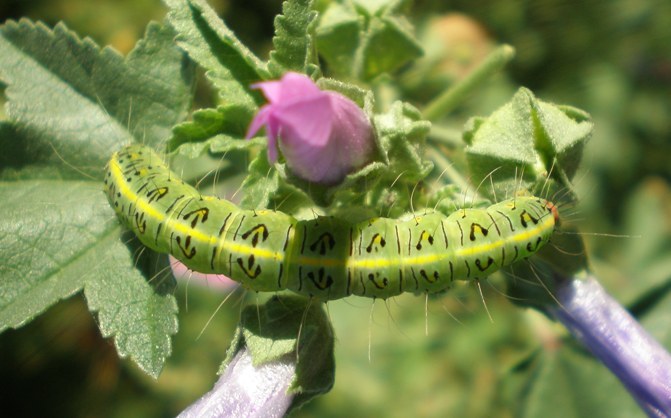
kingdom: Animalia
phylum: Arthropoda
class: Insecta
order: Lepidoptera
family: Nolidae
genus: Pardoxia
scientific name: Pardoxia graellsii
